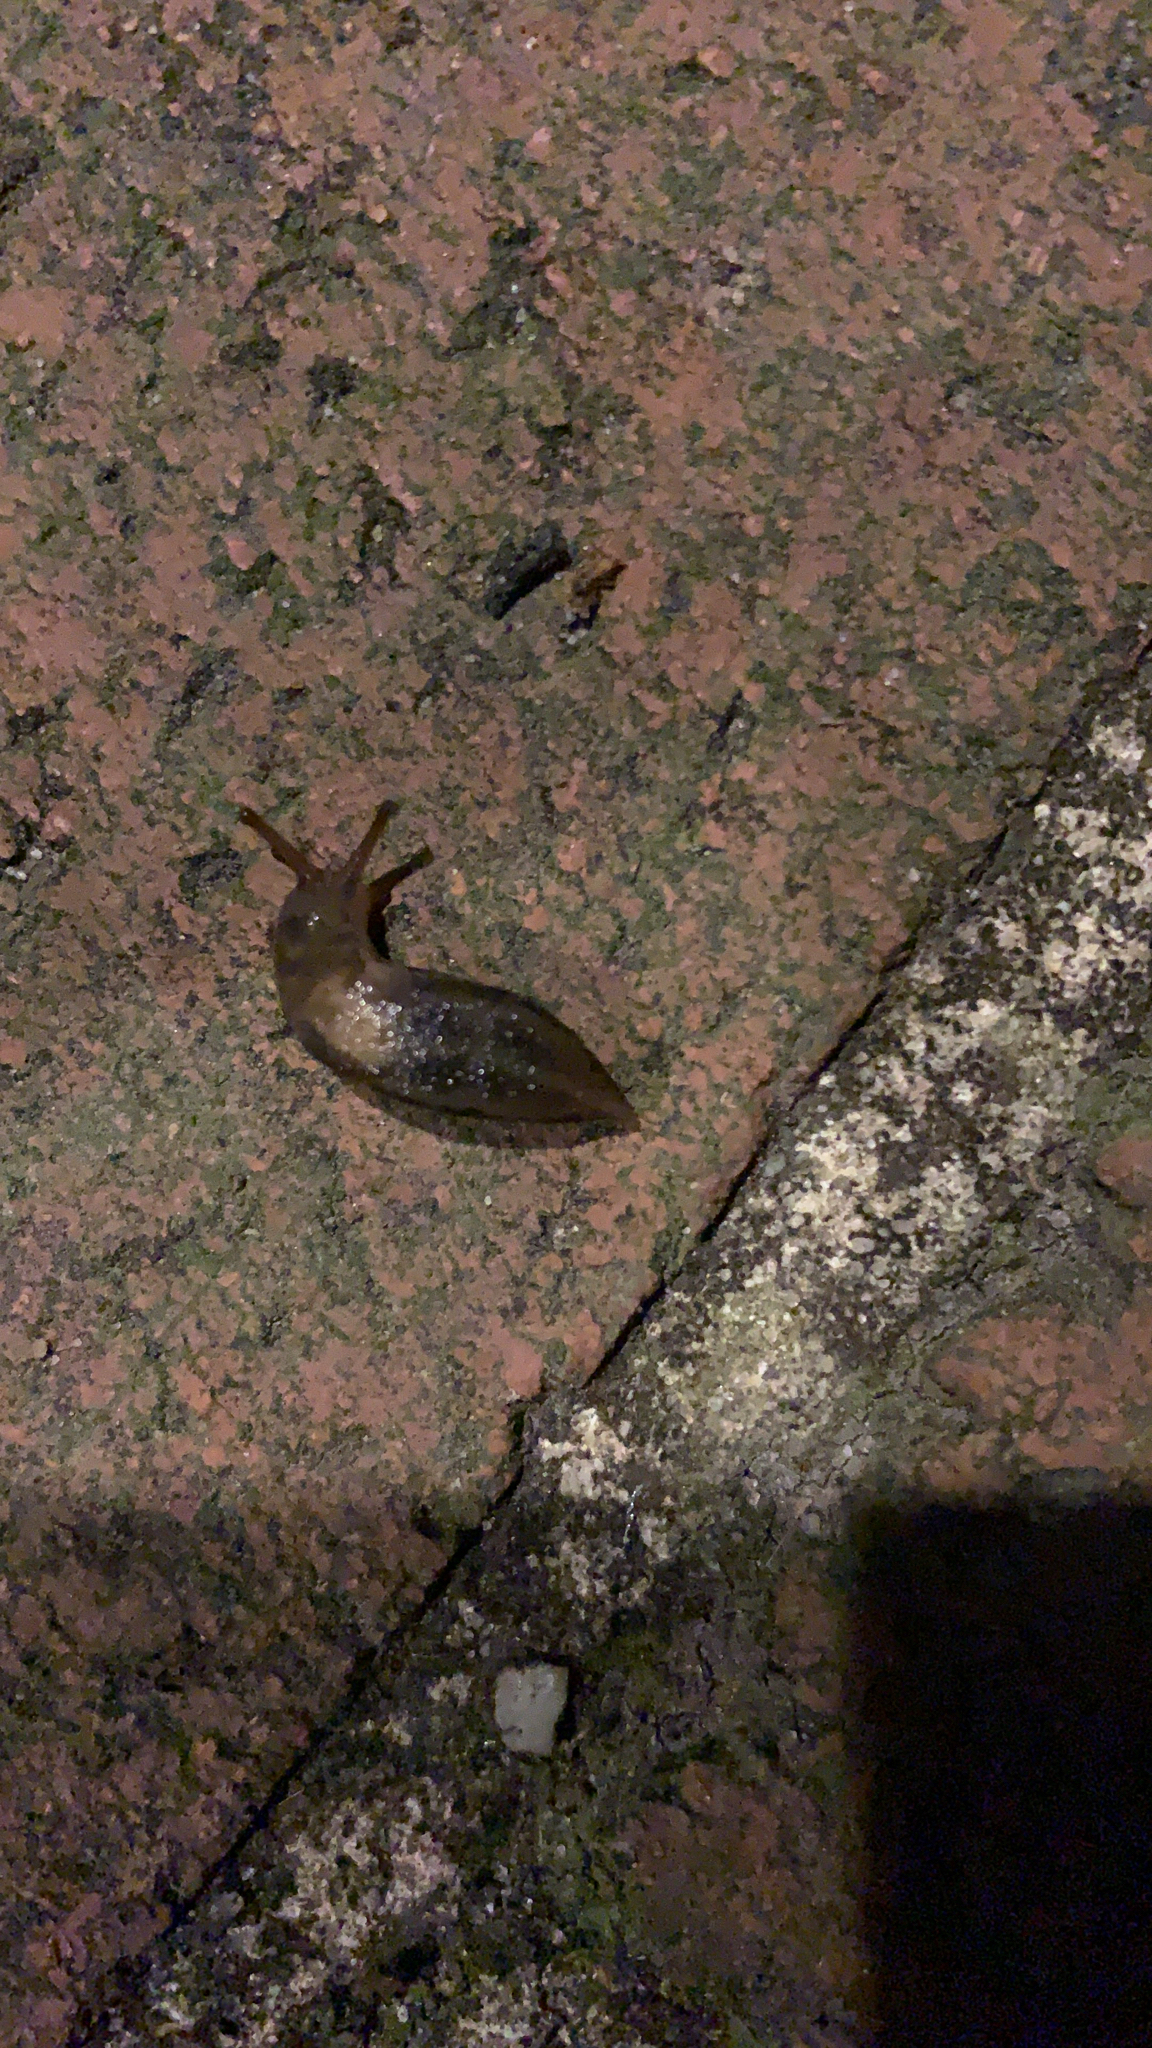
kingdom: Animalia
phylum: Mollusca
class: Gastropoda
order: Stylommatophora
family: Limacidae
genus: Limax
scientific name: Limax maximus
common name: Great grey slug
